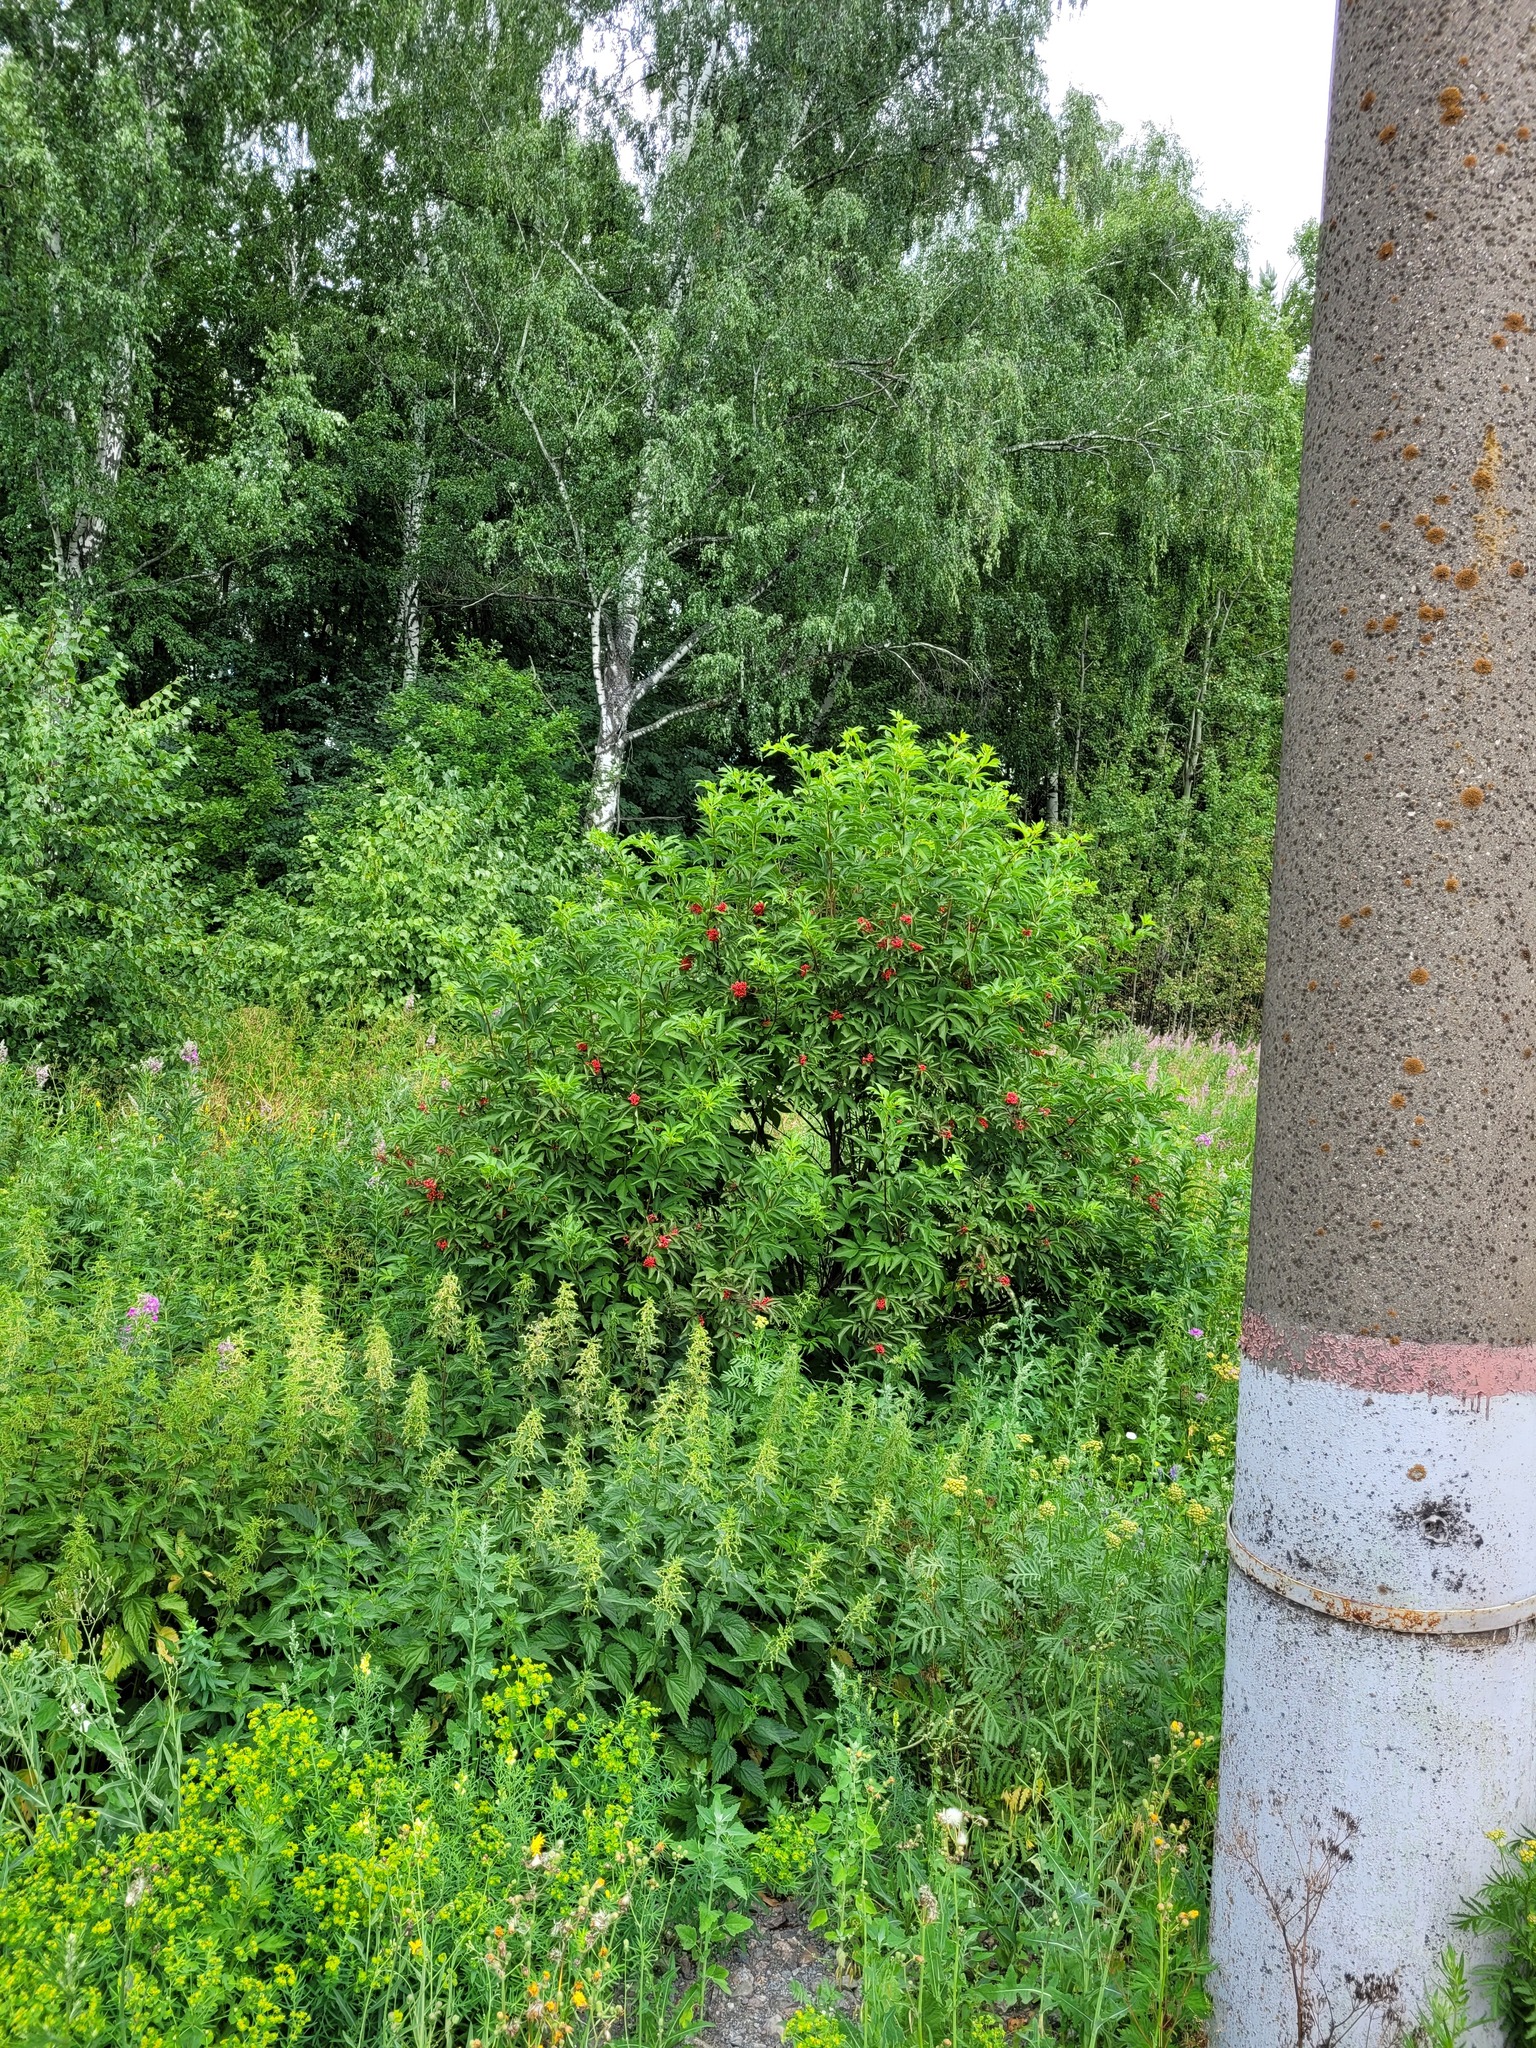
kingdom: Plantae
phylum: Tracheophyta
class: Magnoliopsida
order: Dipsacales
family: Viburnaceae
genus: Sambucus
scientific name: Sambucus racemosa
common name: Red-berried elder
